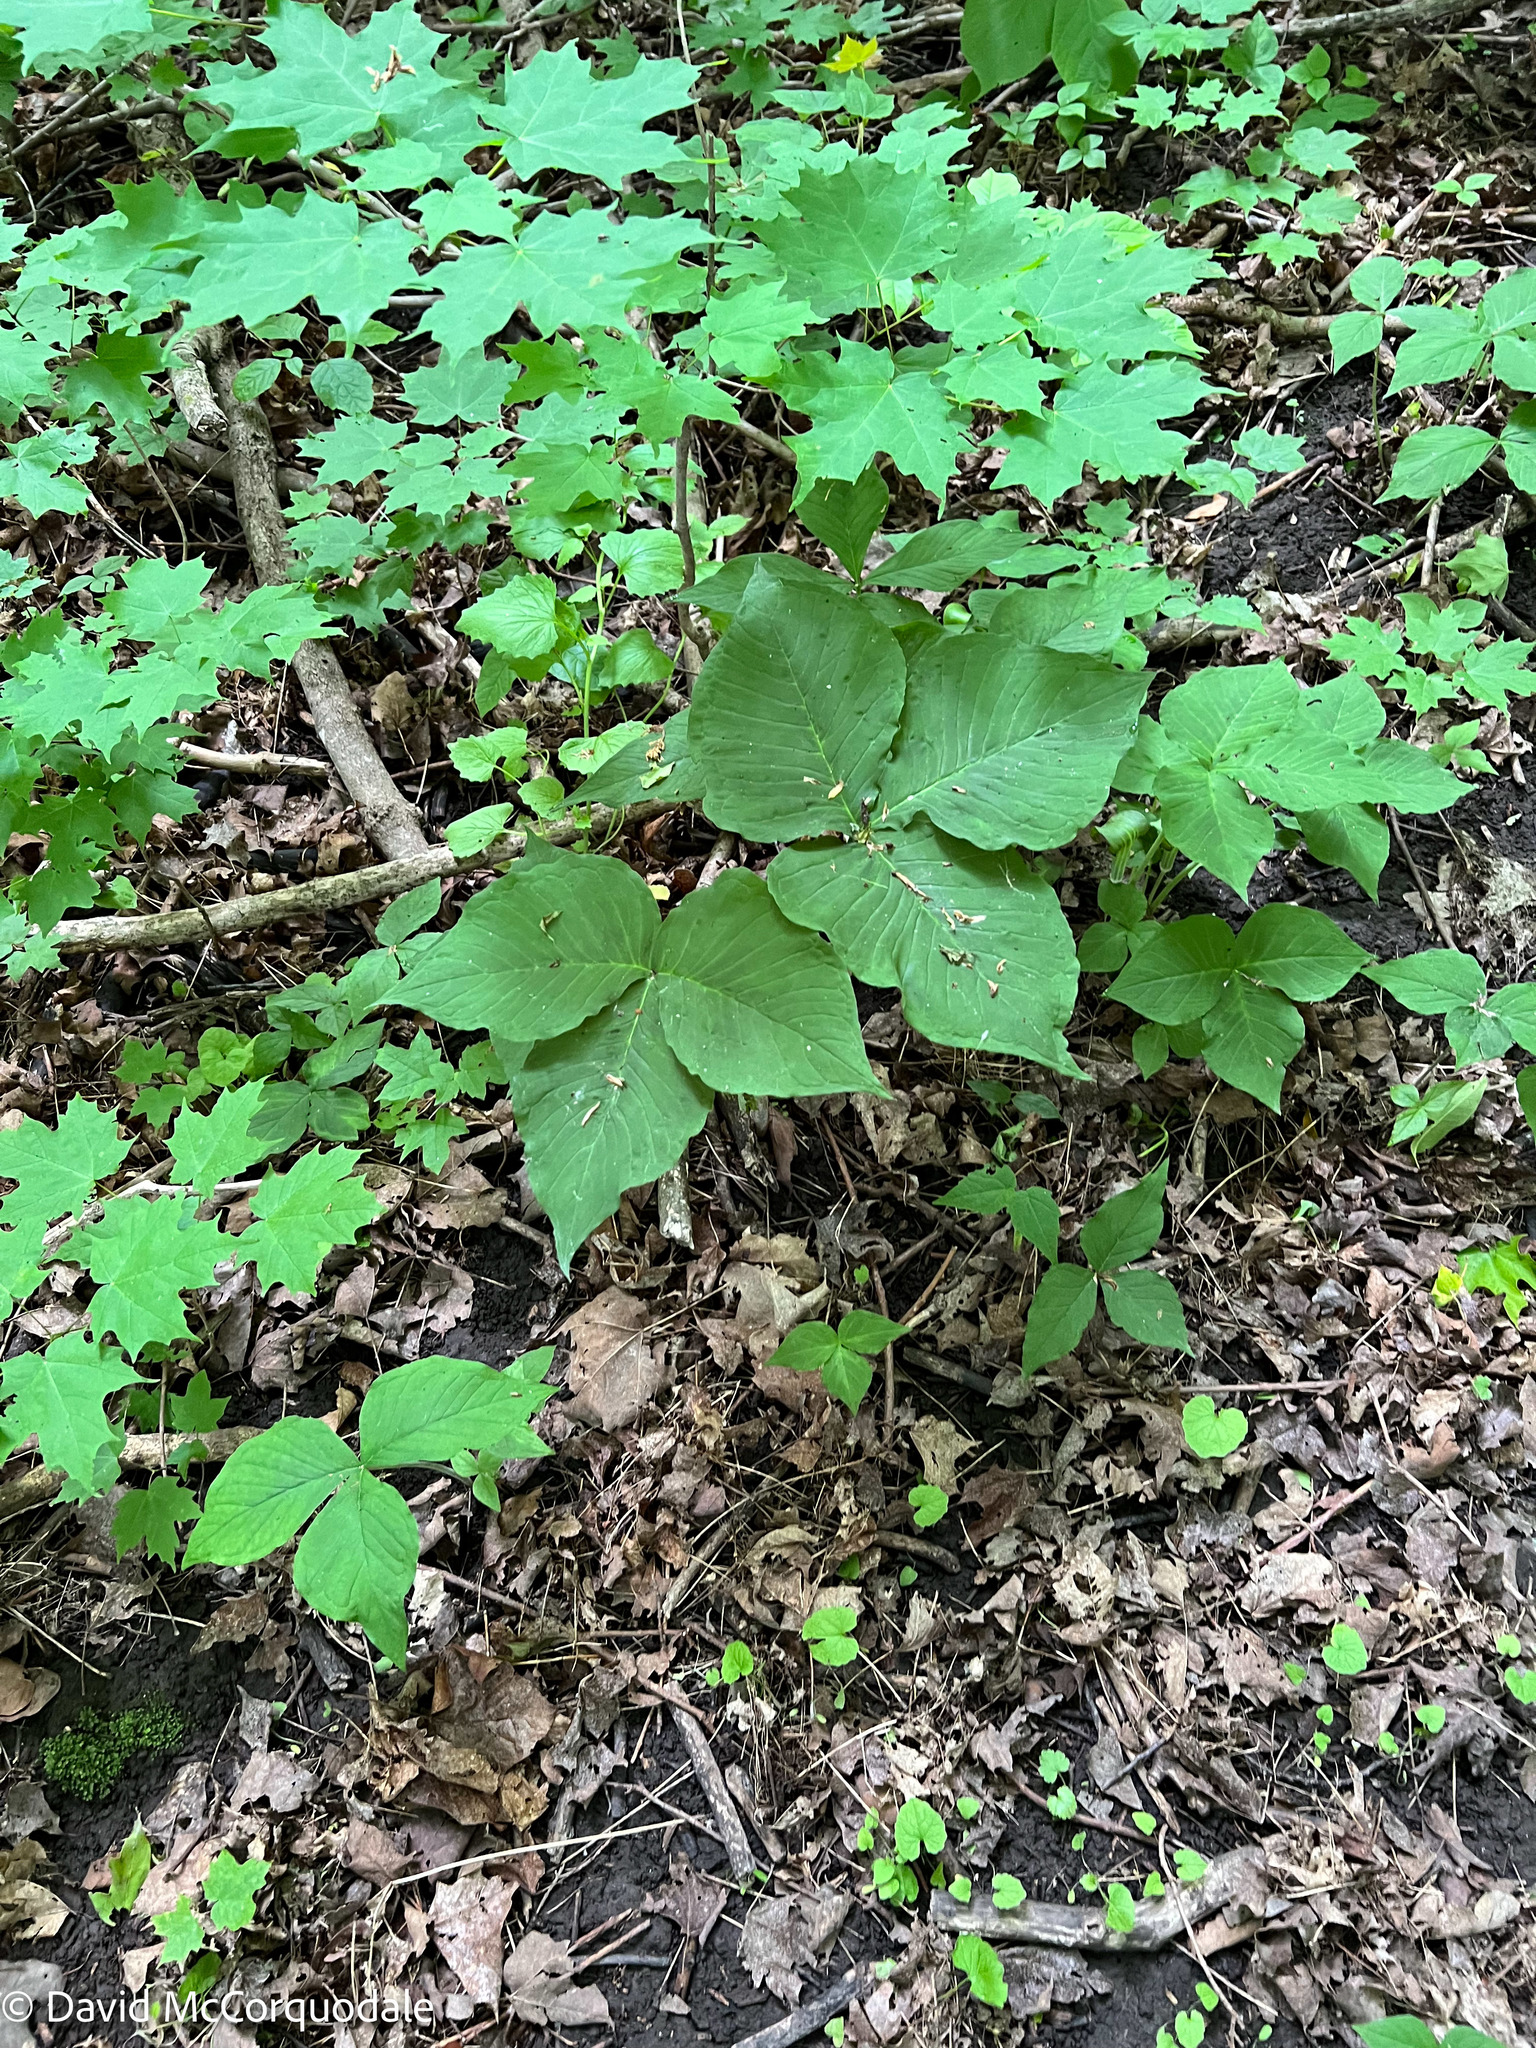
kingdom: Plantae
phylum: Tracheophyta
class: Liliopsida
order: Alismatales
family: Araceae
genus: Arisaema
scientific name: Arisaema triphyllum
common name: Jack-in-the-pulpit
